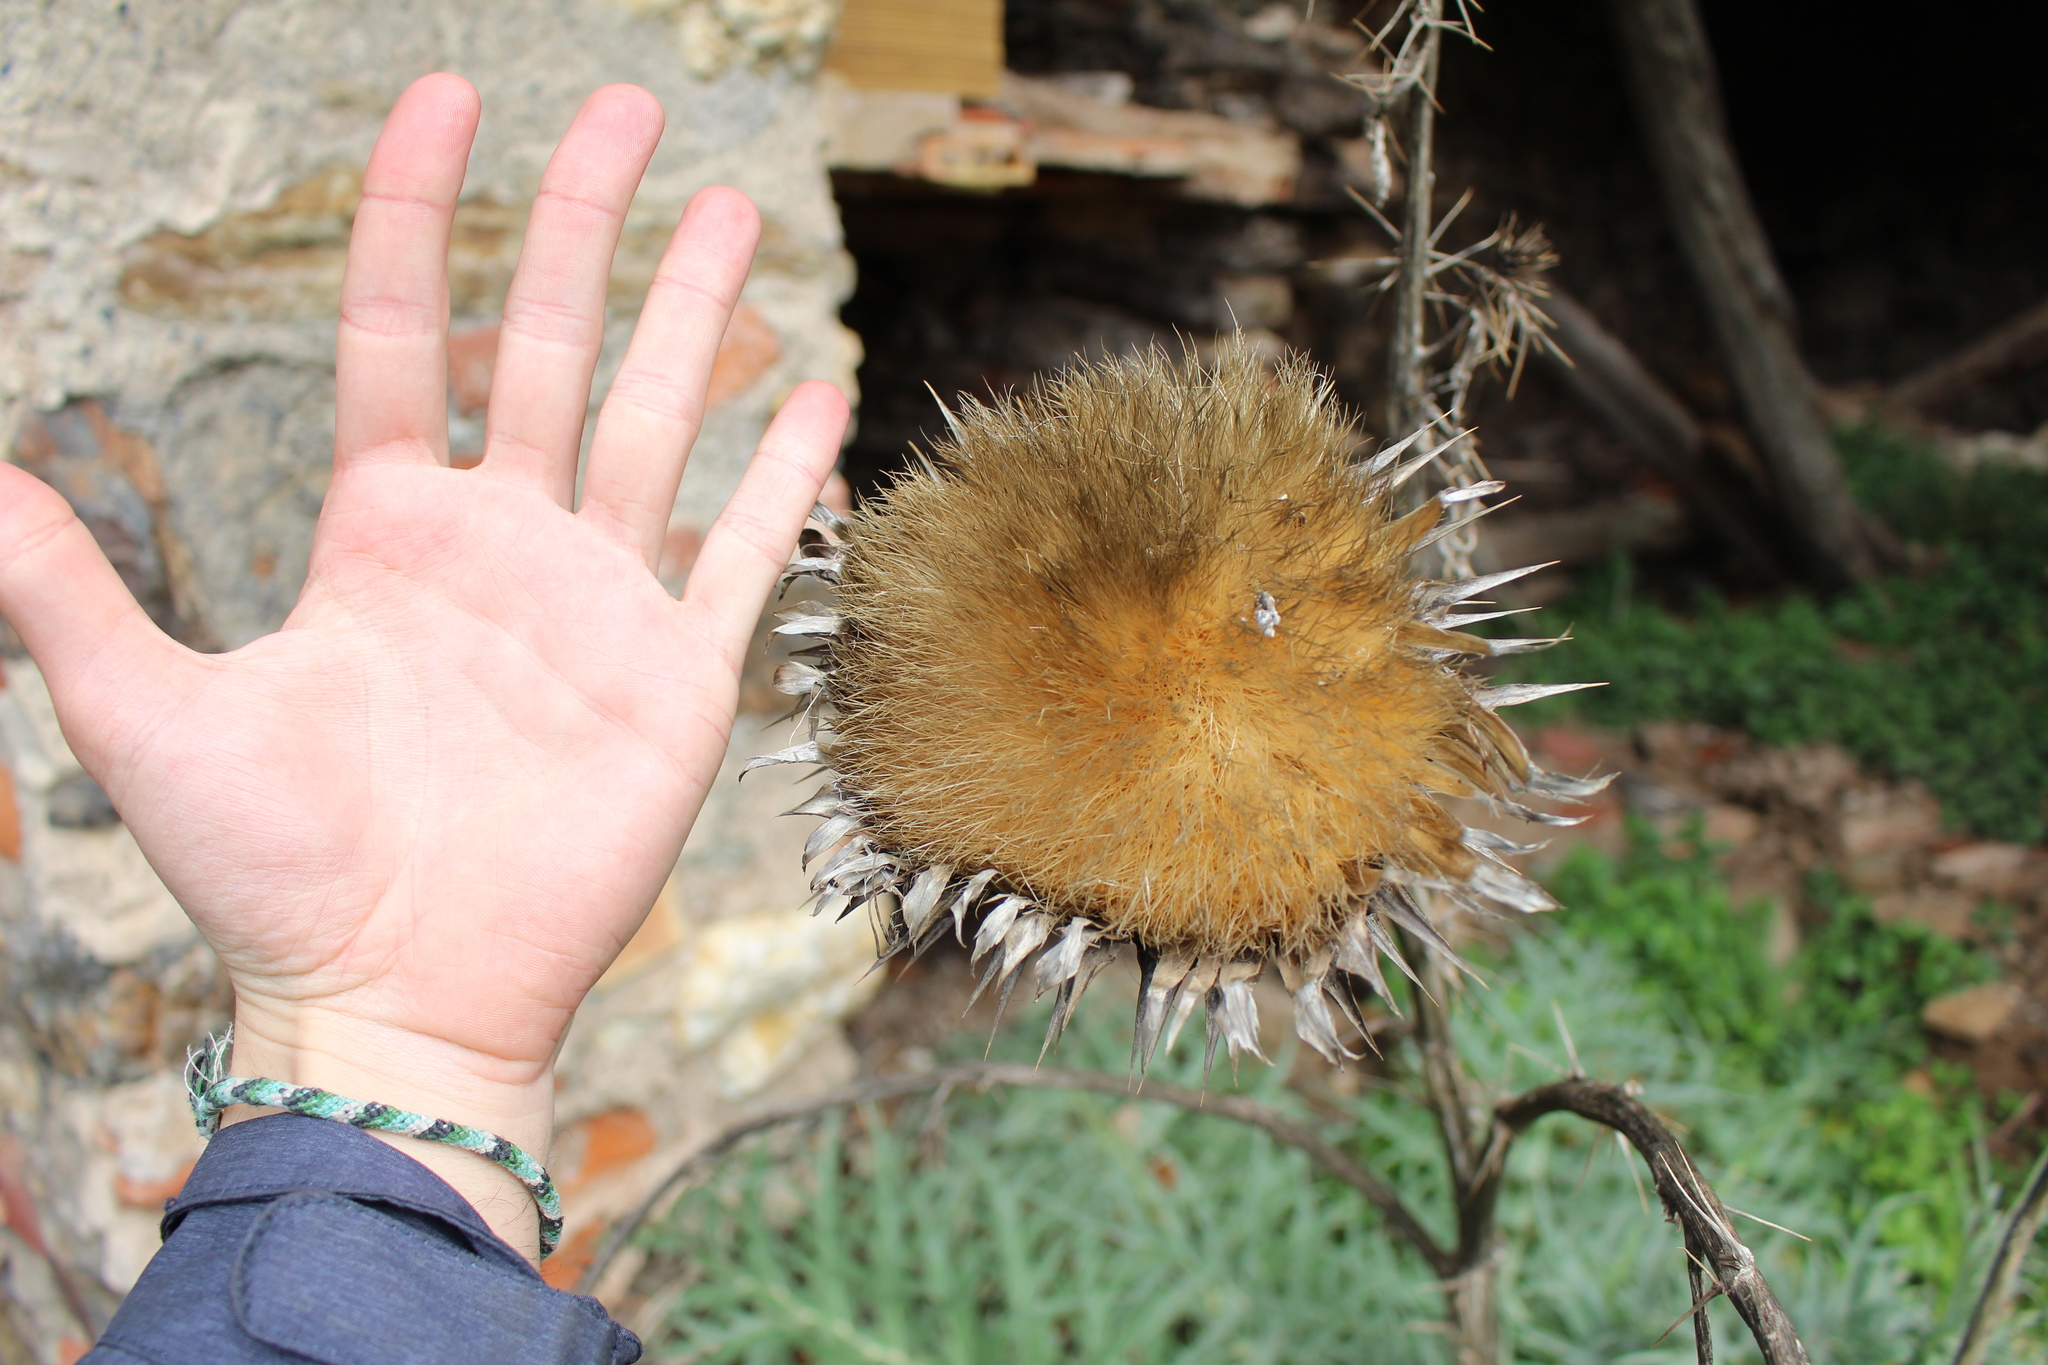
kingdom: Plantae
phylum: Tracheophyta
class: Magnoliopsida
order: Asterales
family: Asteraceae
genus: Cynara
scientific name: Cynara cardunculus
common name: Globe artichoke
